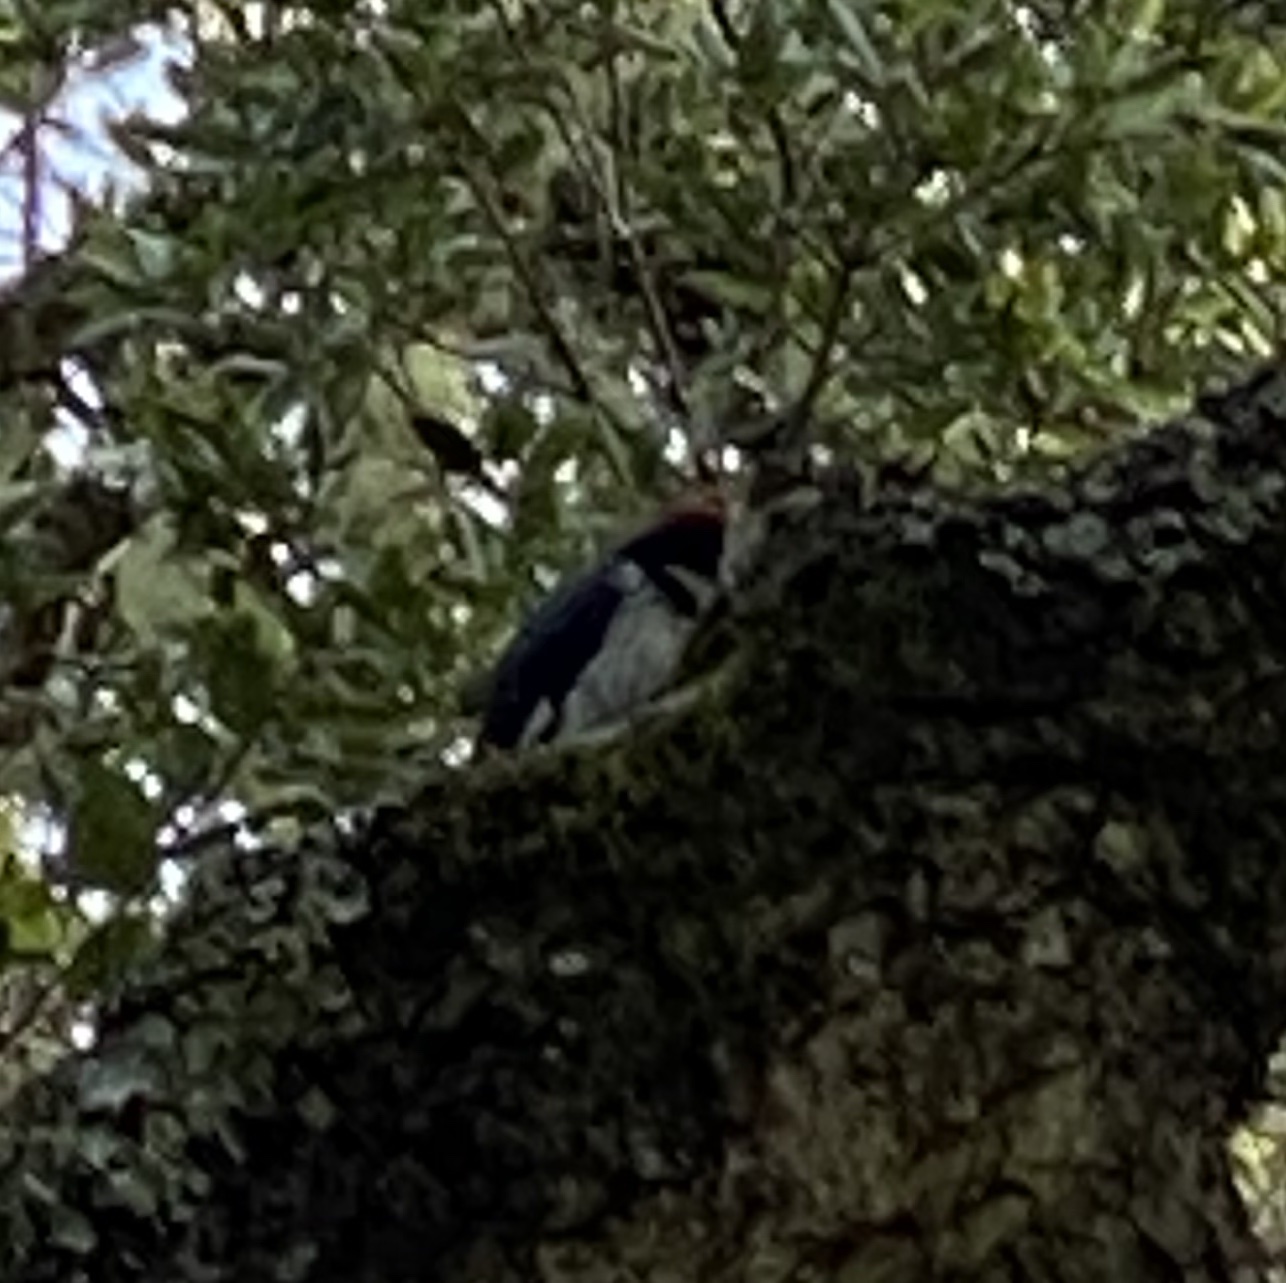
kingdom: Animalia
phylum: Chordata
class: Aves
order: Piciformes
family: Picidae
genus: Melanerpes
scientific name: Melanerpes formicivorus
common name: Acorn woodpecker
